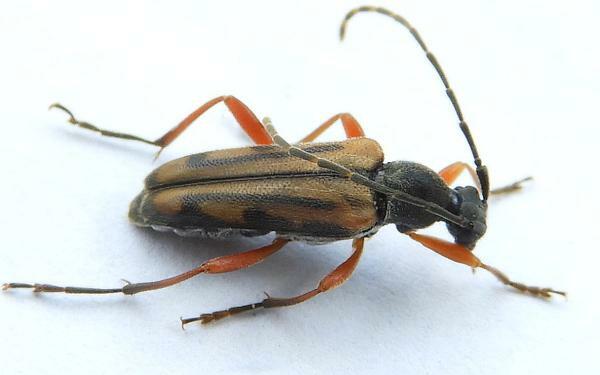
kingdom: Animalia
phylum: Arthropoda
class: Insecta
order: Coleoptera
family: Cerambycidae
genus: Analeptura
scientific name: Analeptura lineola
